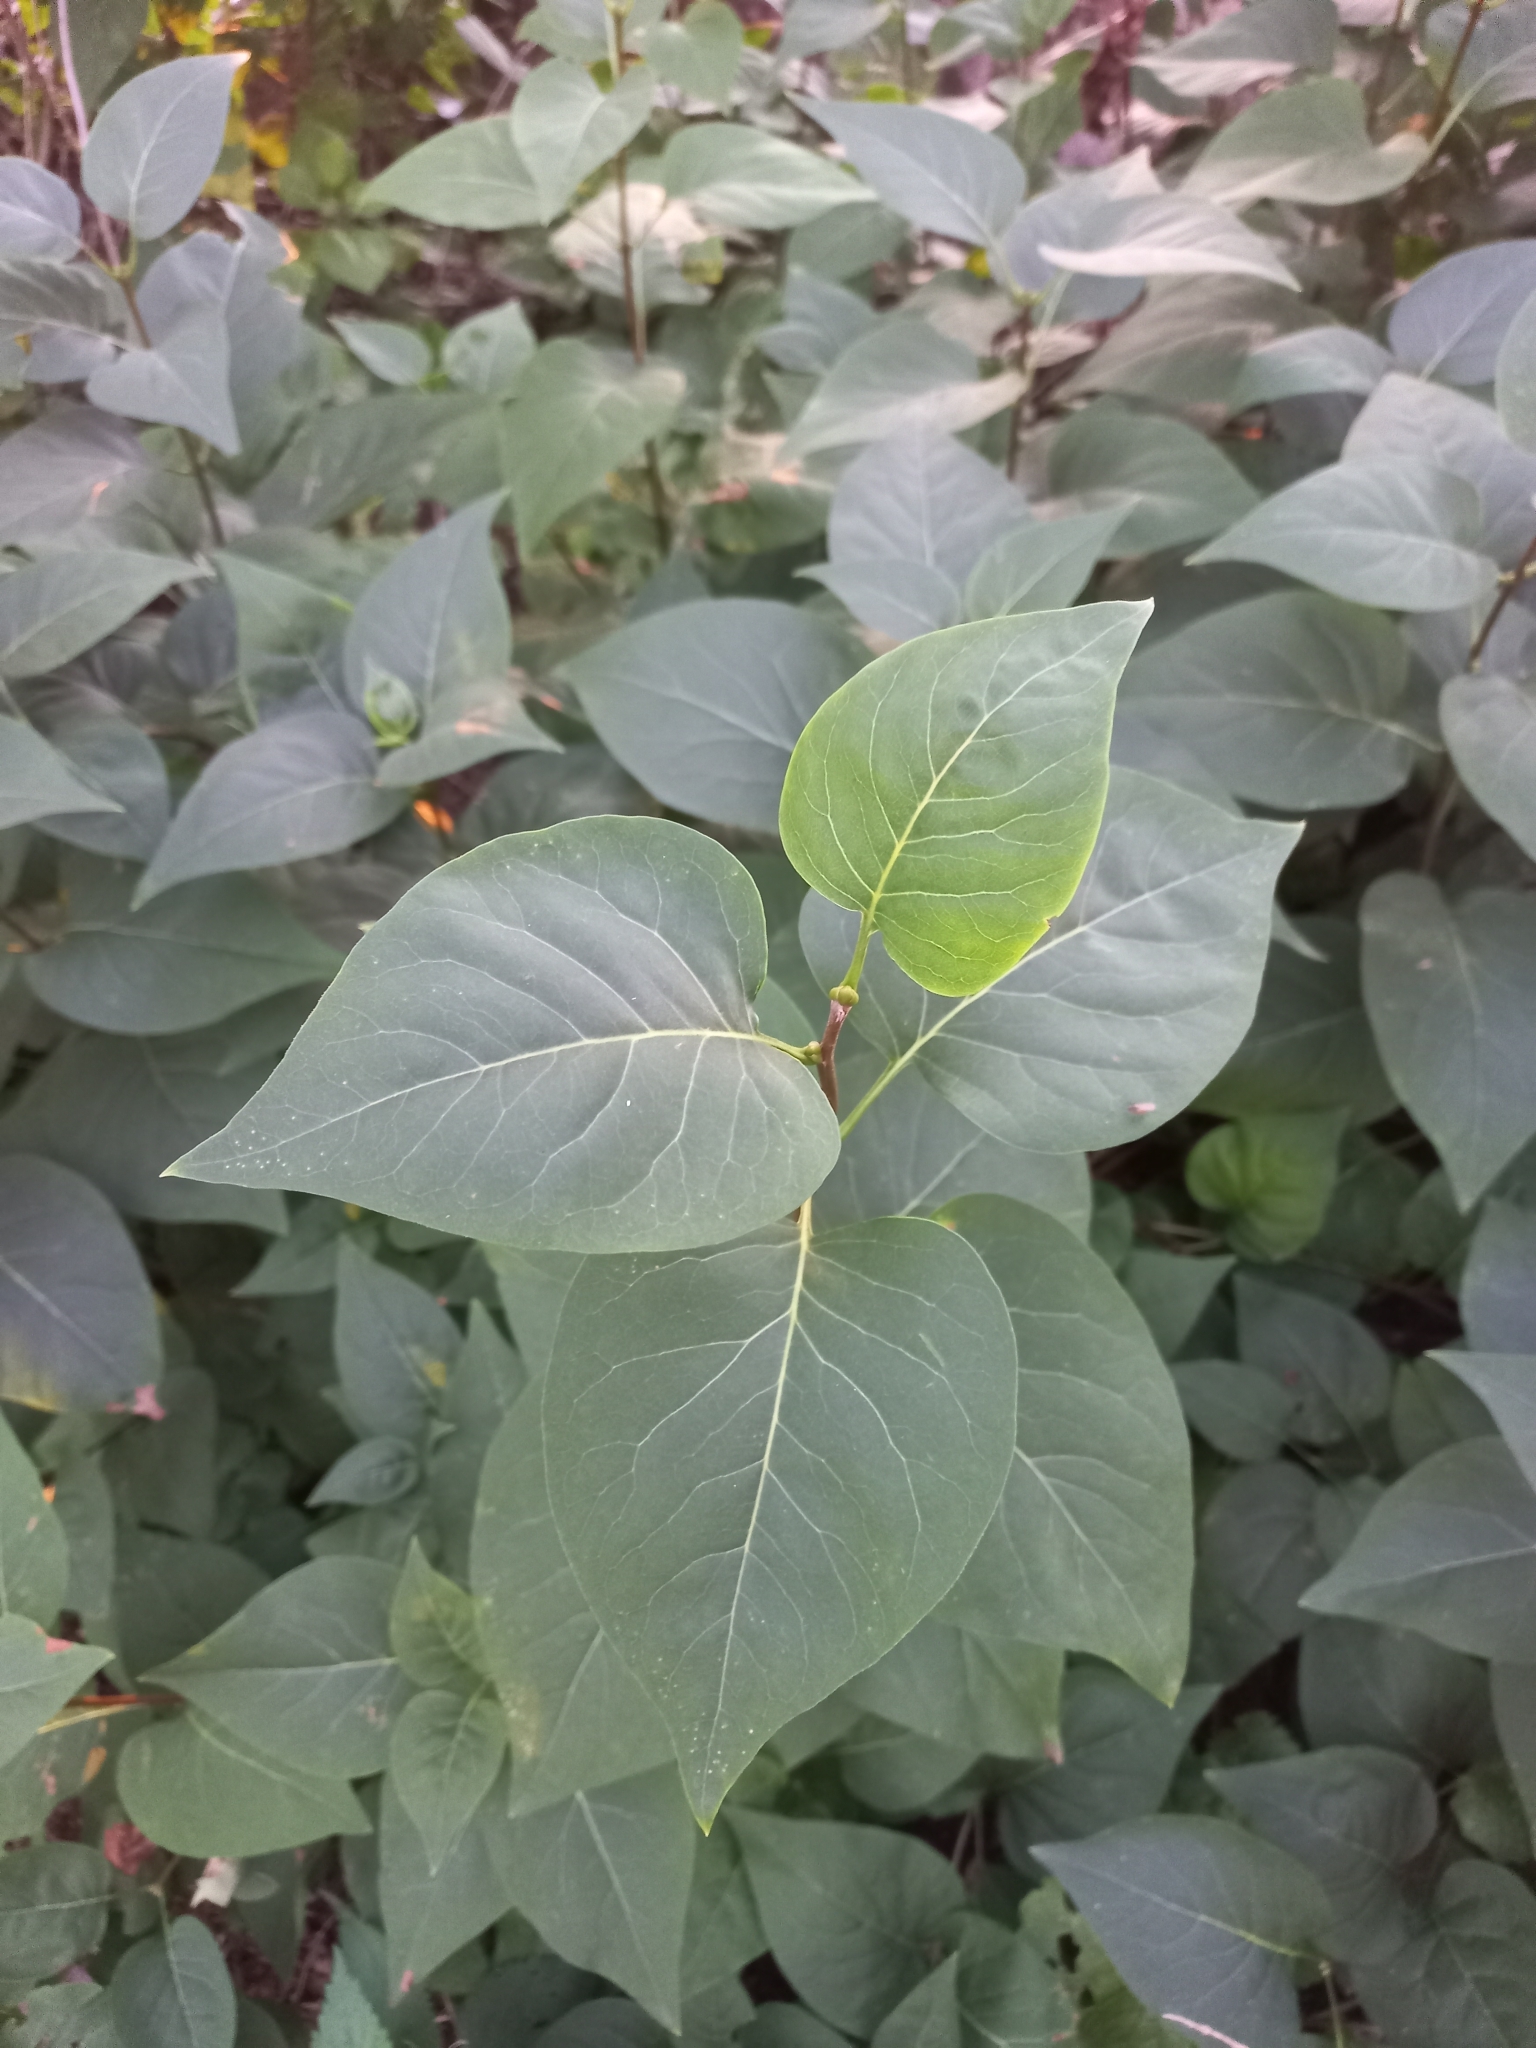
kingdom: Plantae
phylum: Tracheophyta
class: Magnoliopsida
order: Lamiales
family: Oleaceae
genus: Syringa
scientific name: Syringa vulgaris
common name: Common lilac
